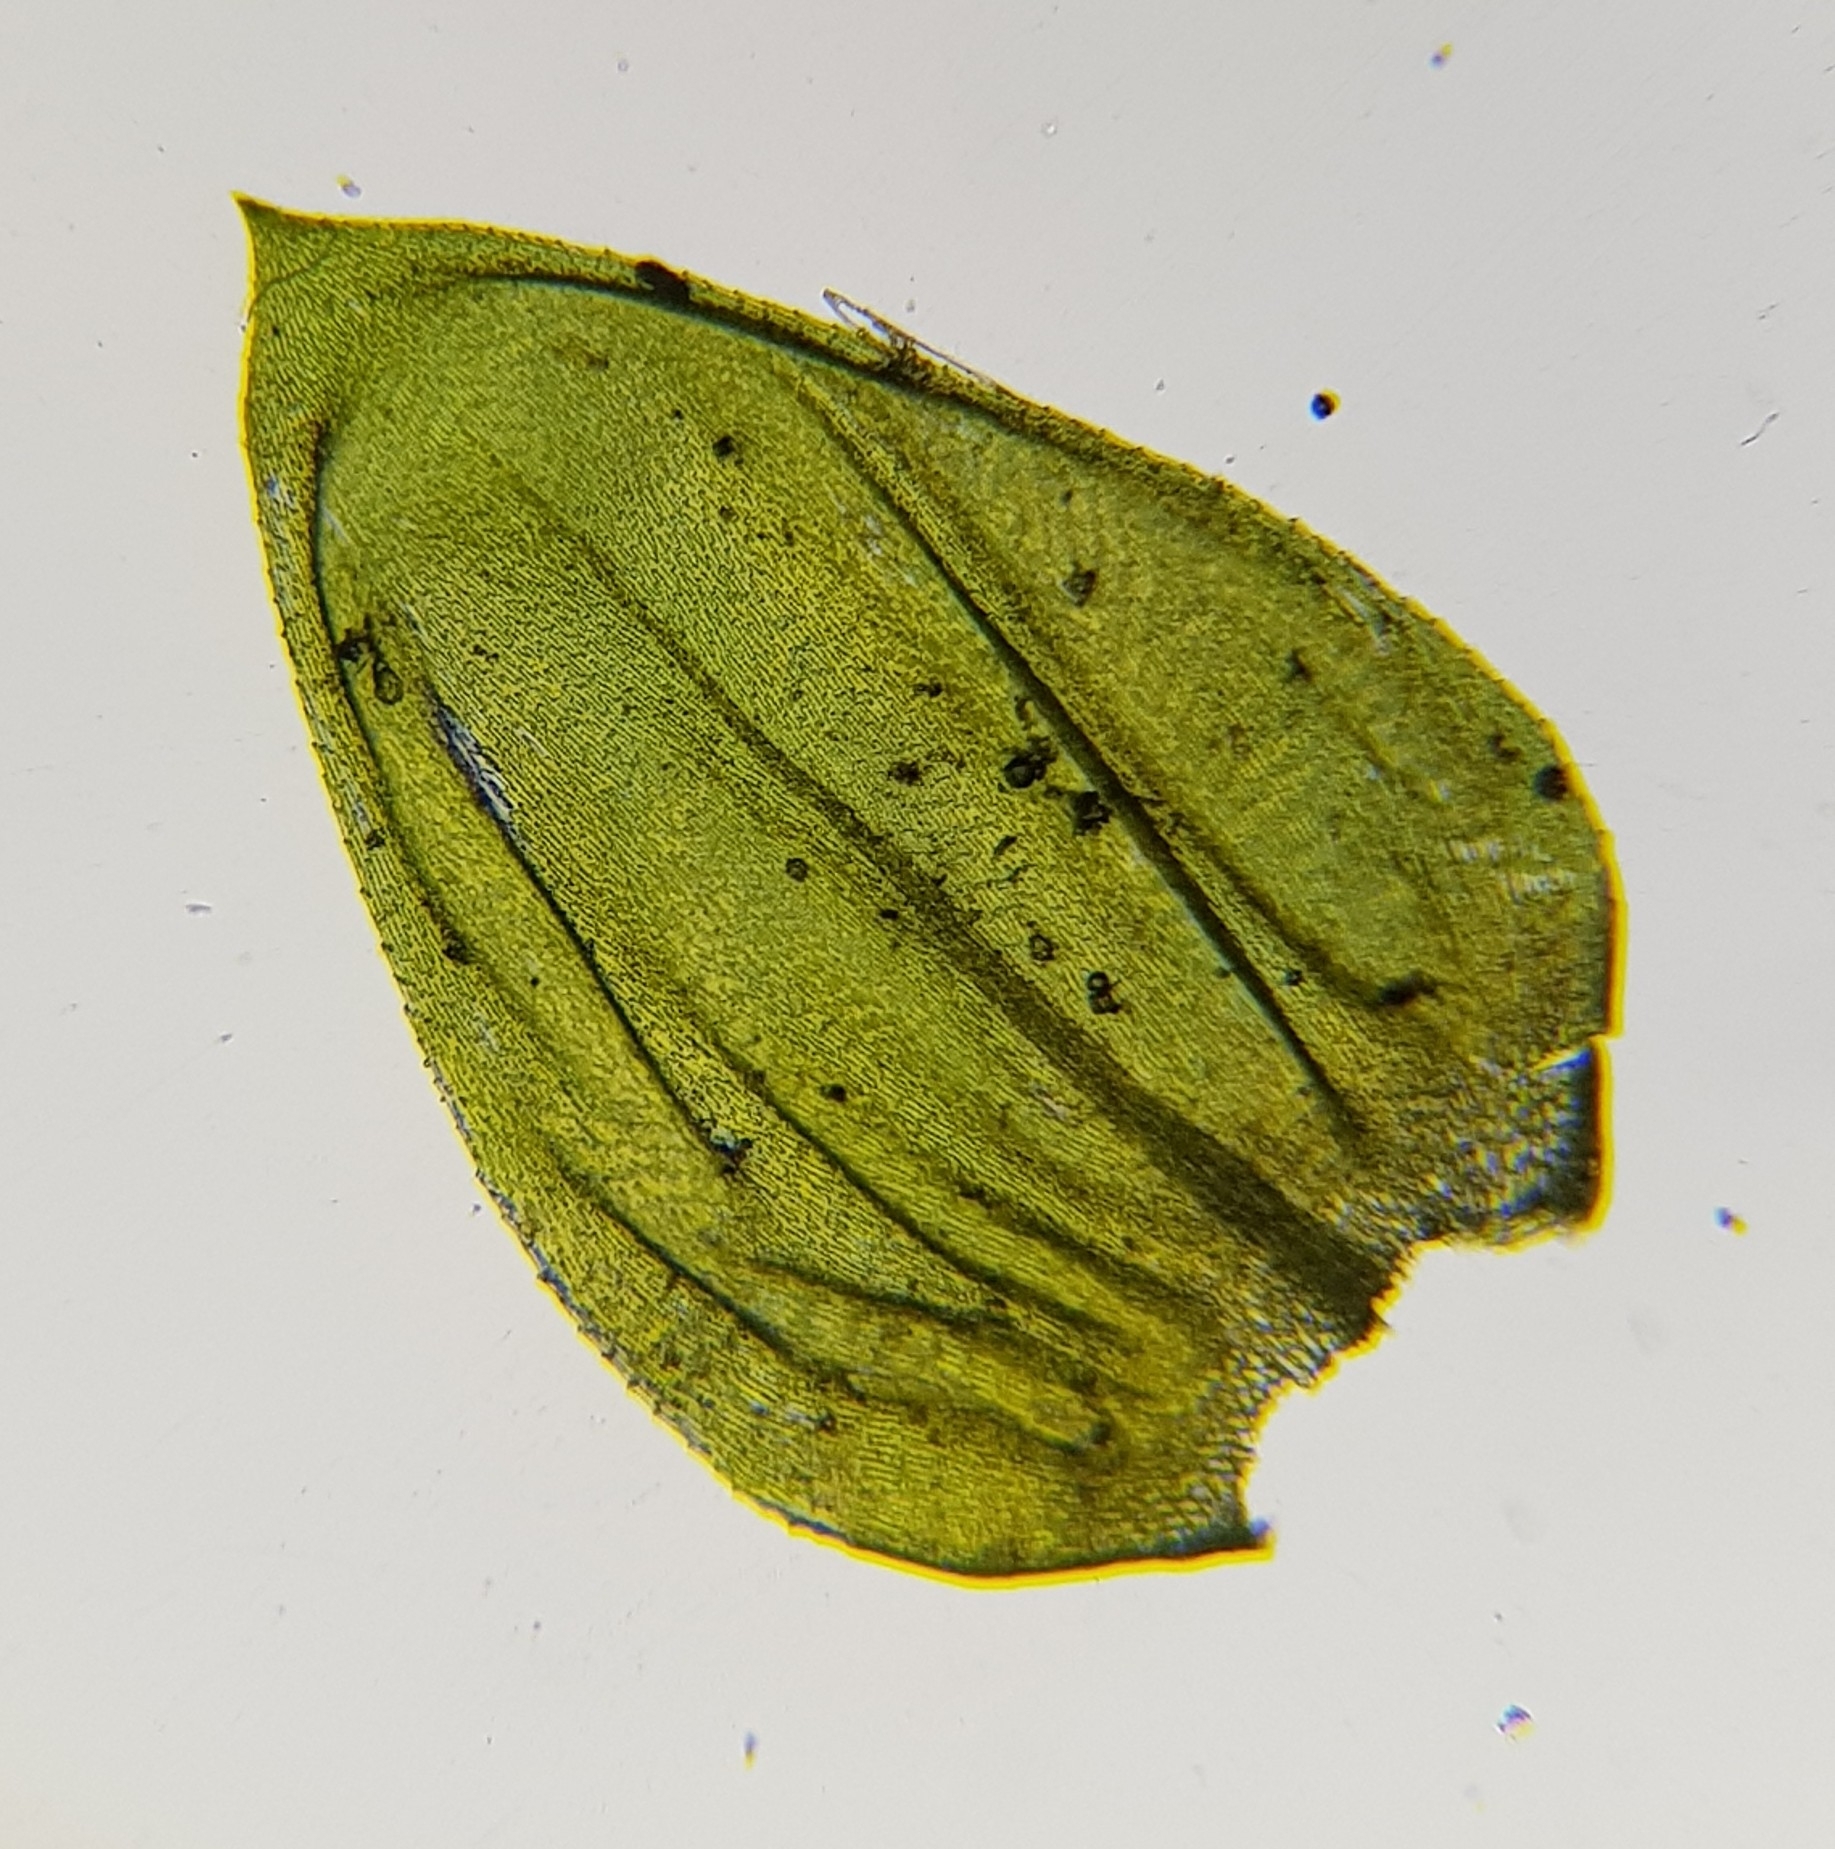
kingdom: Plantae
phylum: Bryophyta
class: Bryopsida
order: Hypnales
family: Brachytheciaceae
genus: Cirriphyllum
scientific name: Cirriphyllum crassinervium
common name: Beech feather-moss
